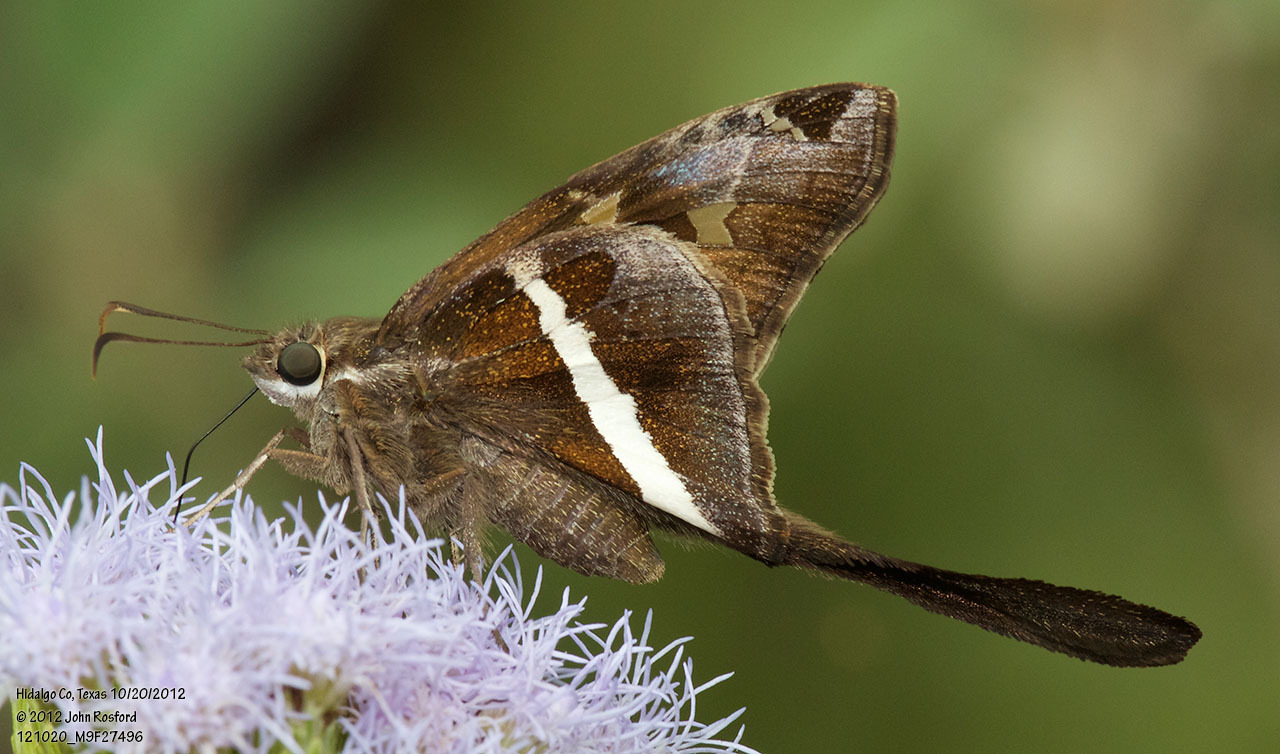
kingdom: Animalia
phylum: Arthropoda
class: Insecta
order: Lepidoptera
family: Hesperiidae
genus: Chioides
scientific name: Chioides catillus
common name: Silverbanded skipper
